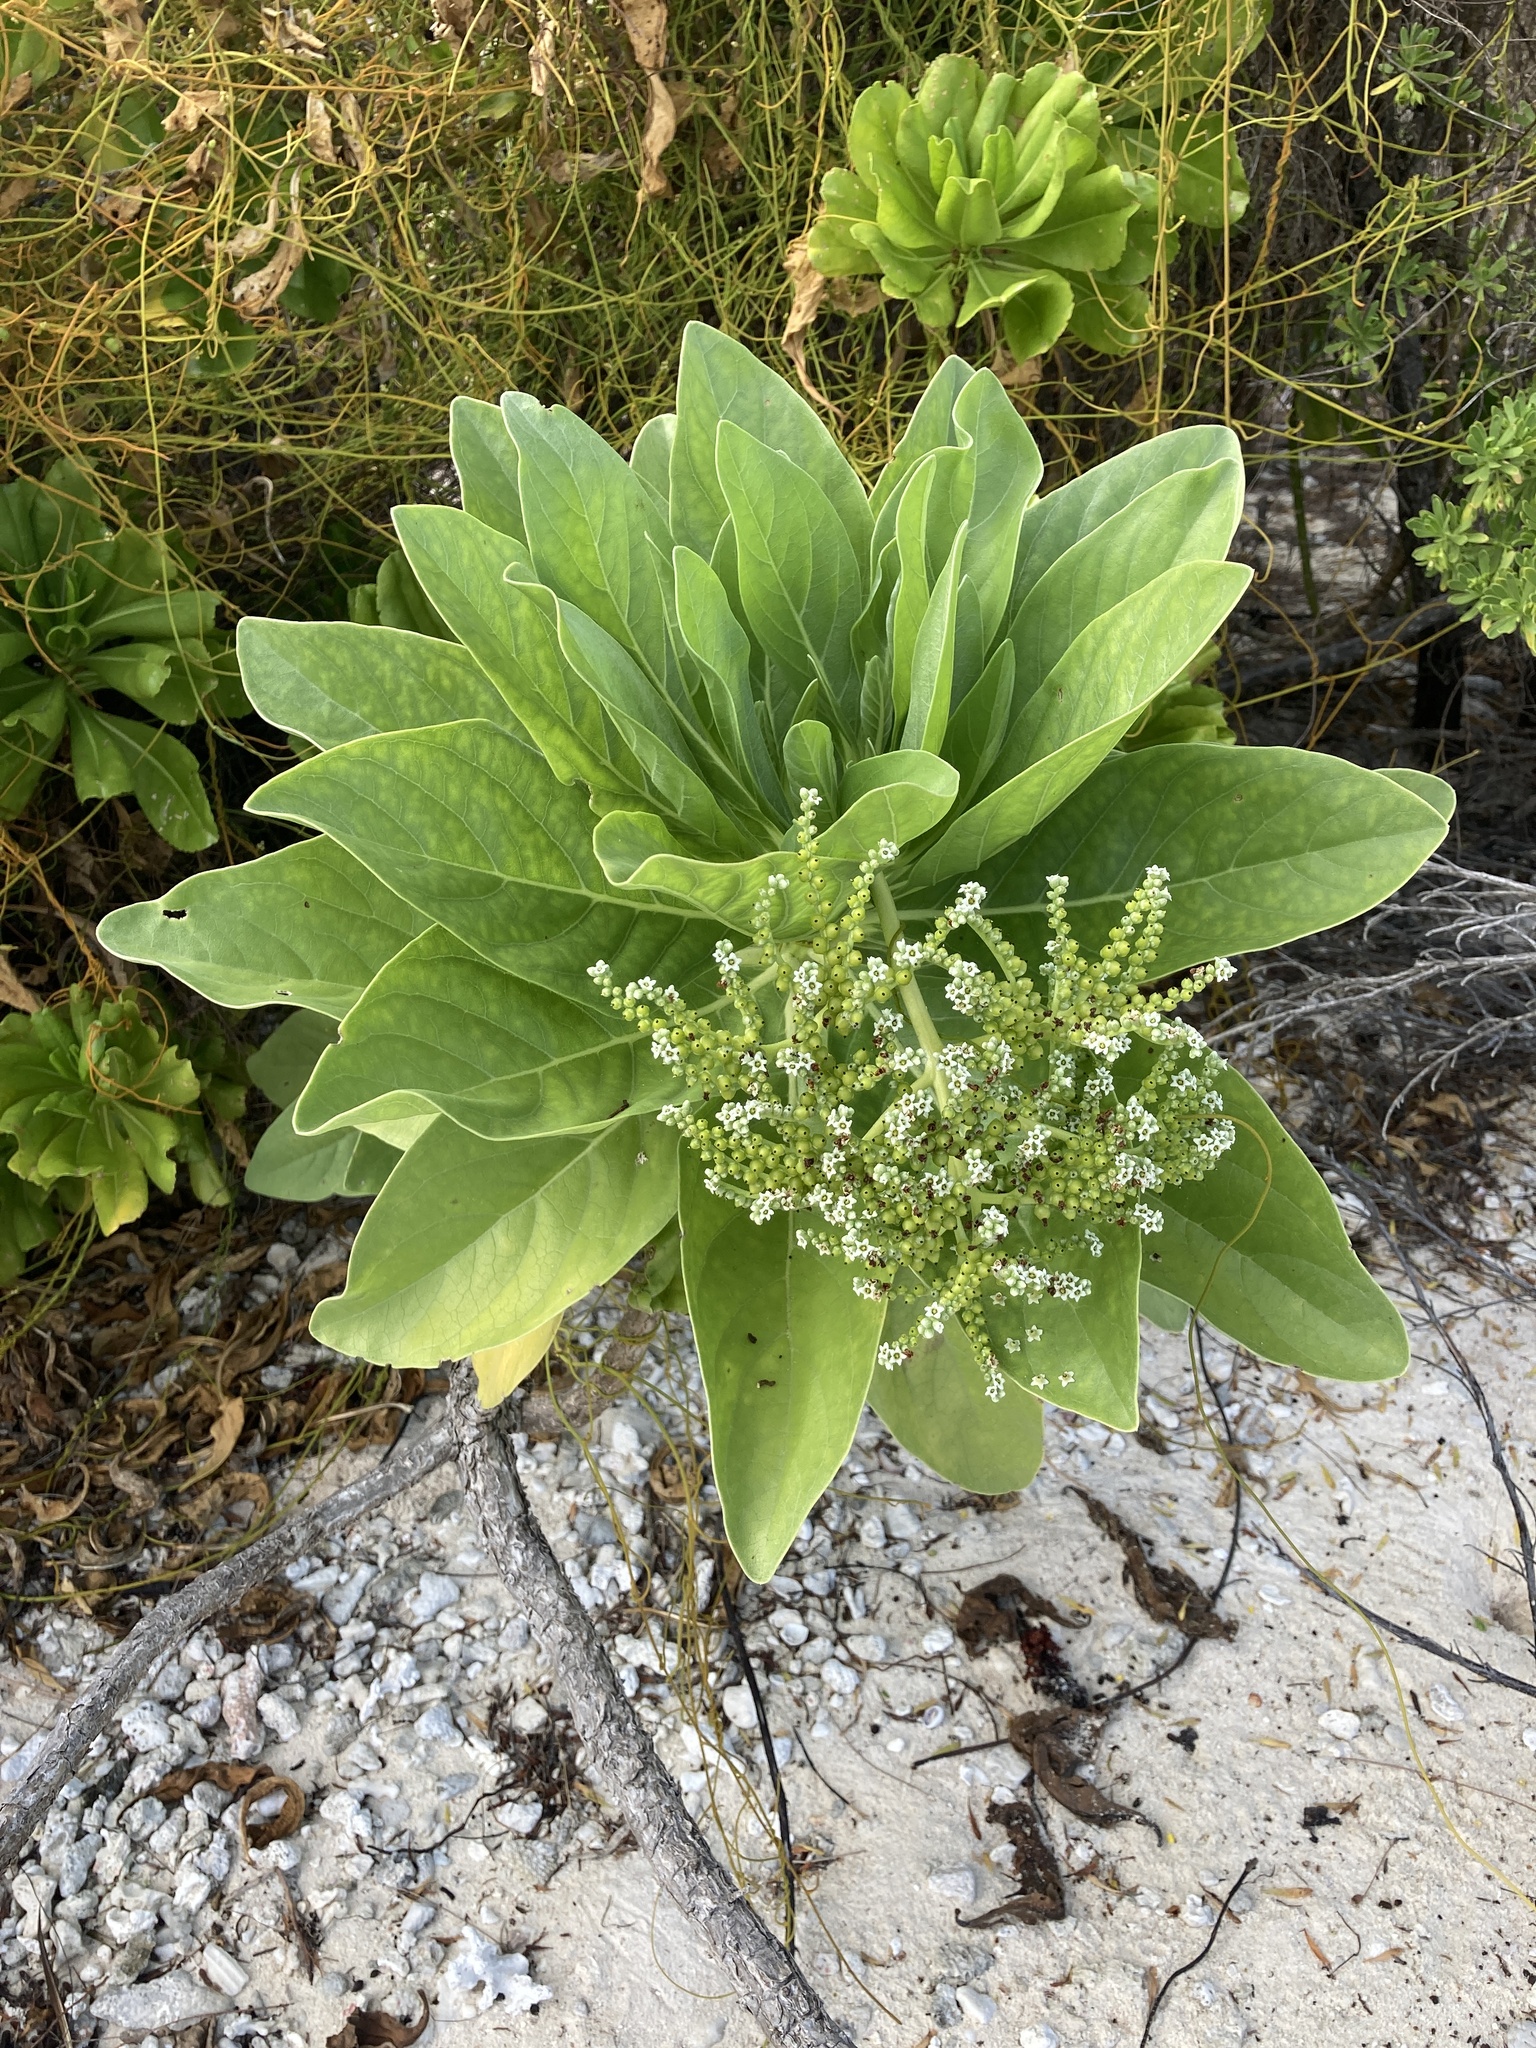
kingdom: Plantae
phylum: Tracheophyta
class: Magnoliopsida
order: Boraginales
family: Heliotropiaceae
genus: Heliotropium
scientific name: Heliotropium velutinum
